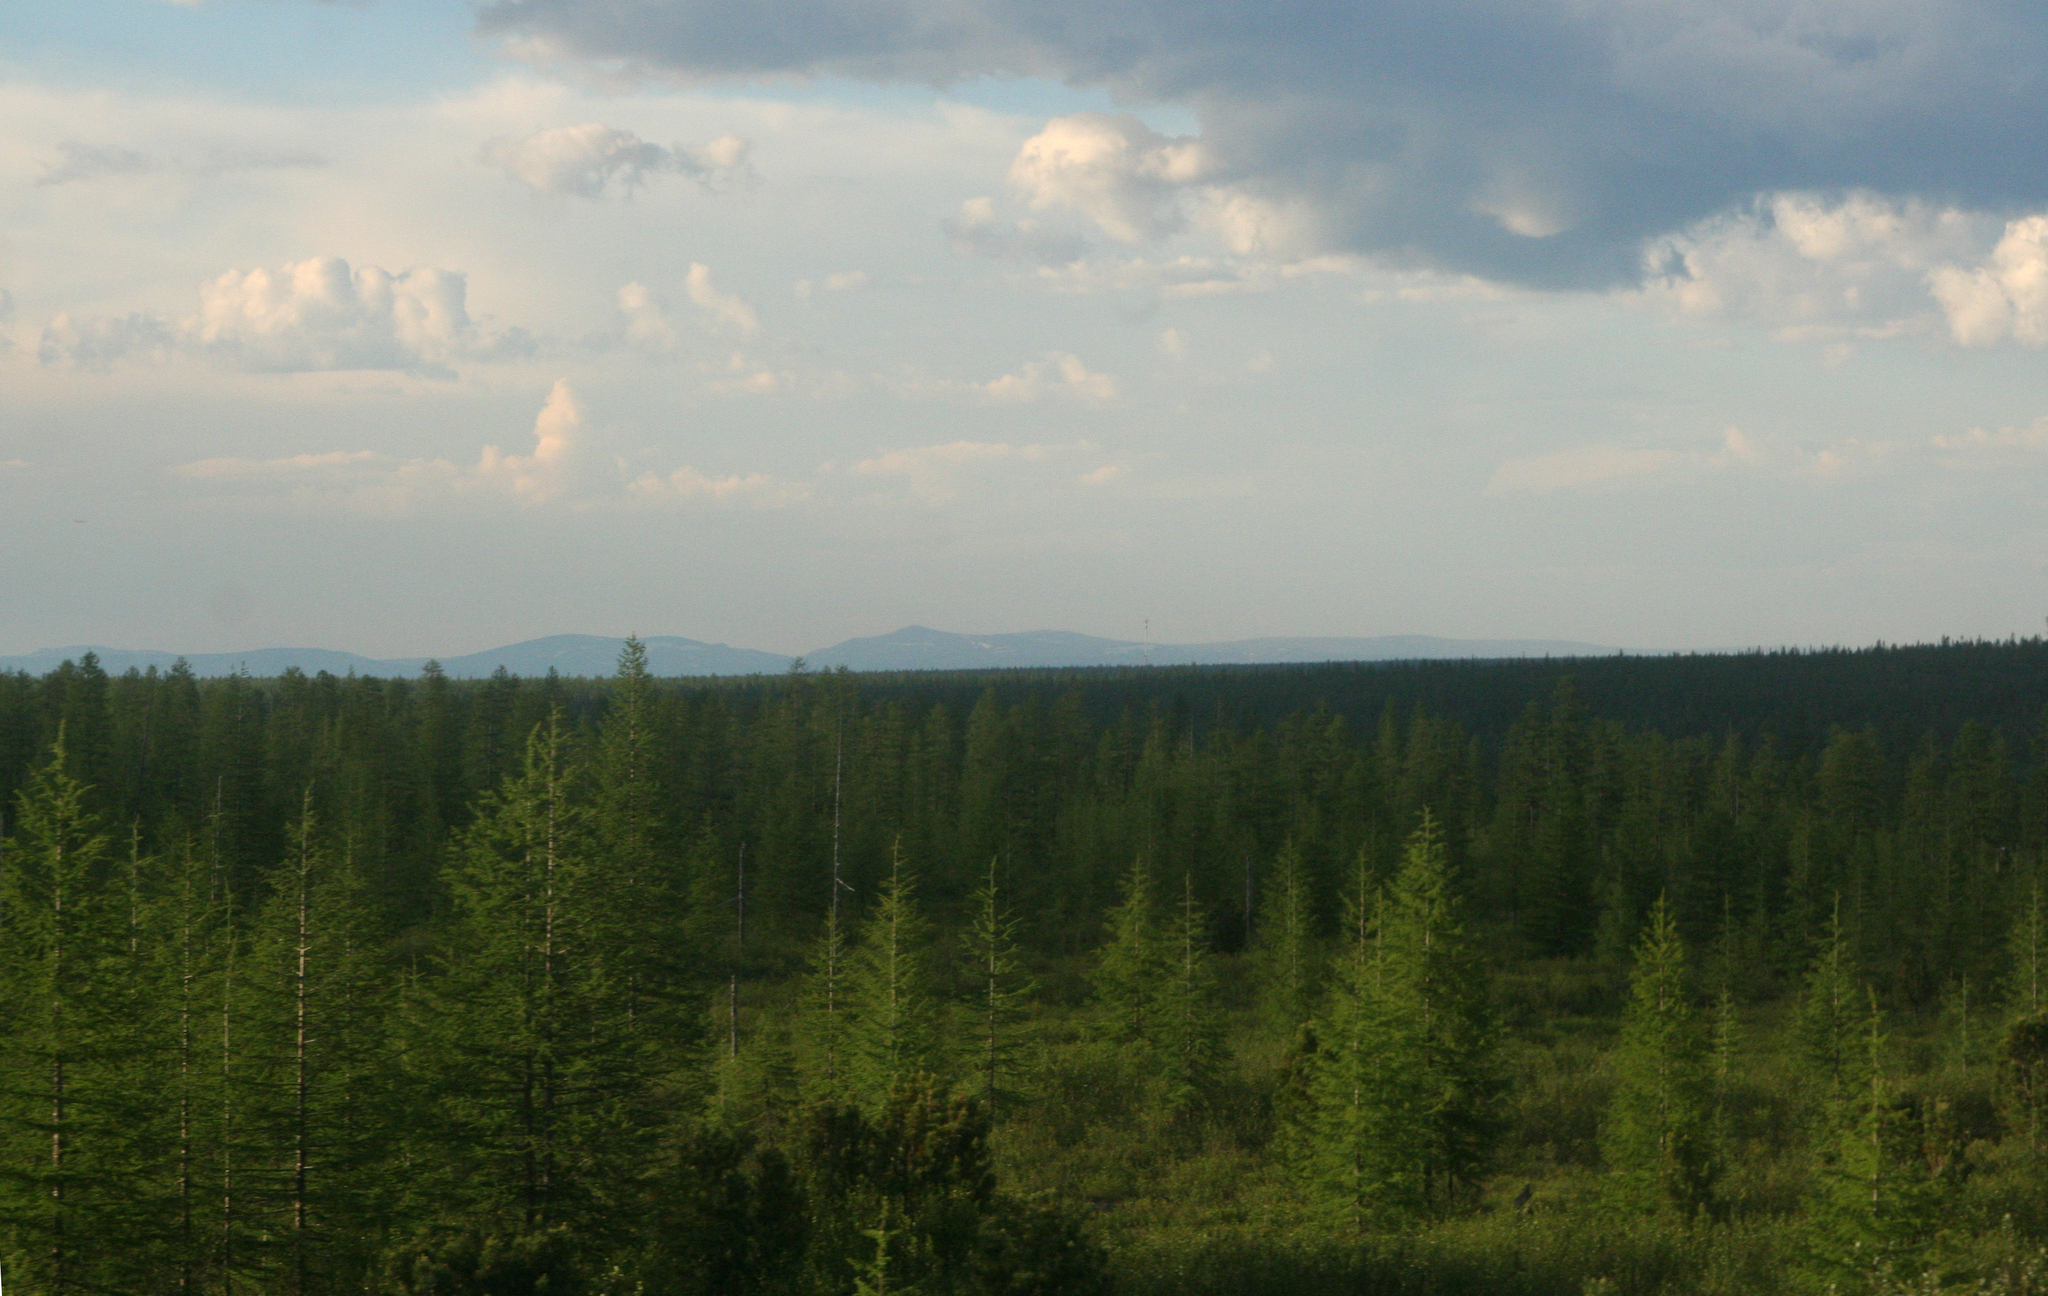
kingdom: Plantae
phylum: Tracheophyta
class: Pinopsida
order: Pinales
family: Pinaceae
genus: Larix
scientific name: Larix gmelinii
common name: Dahurian larch
